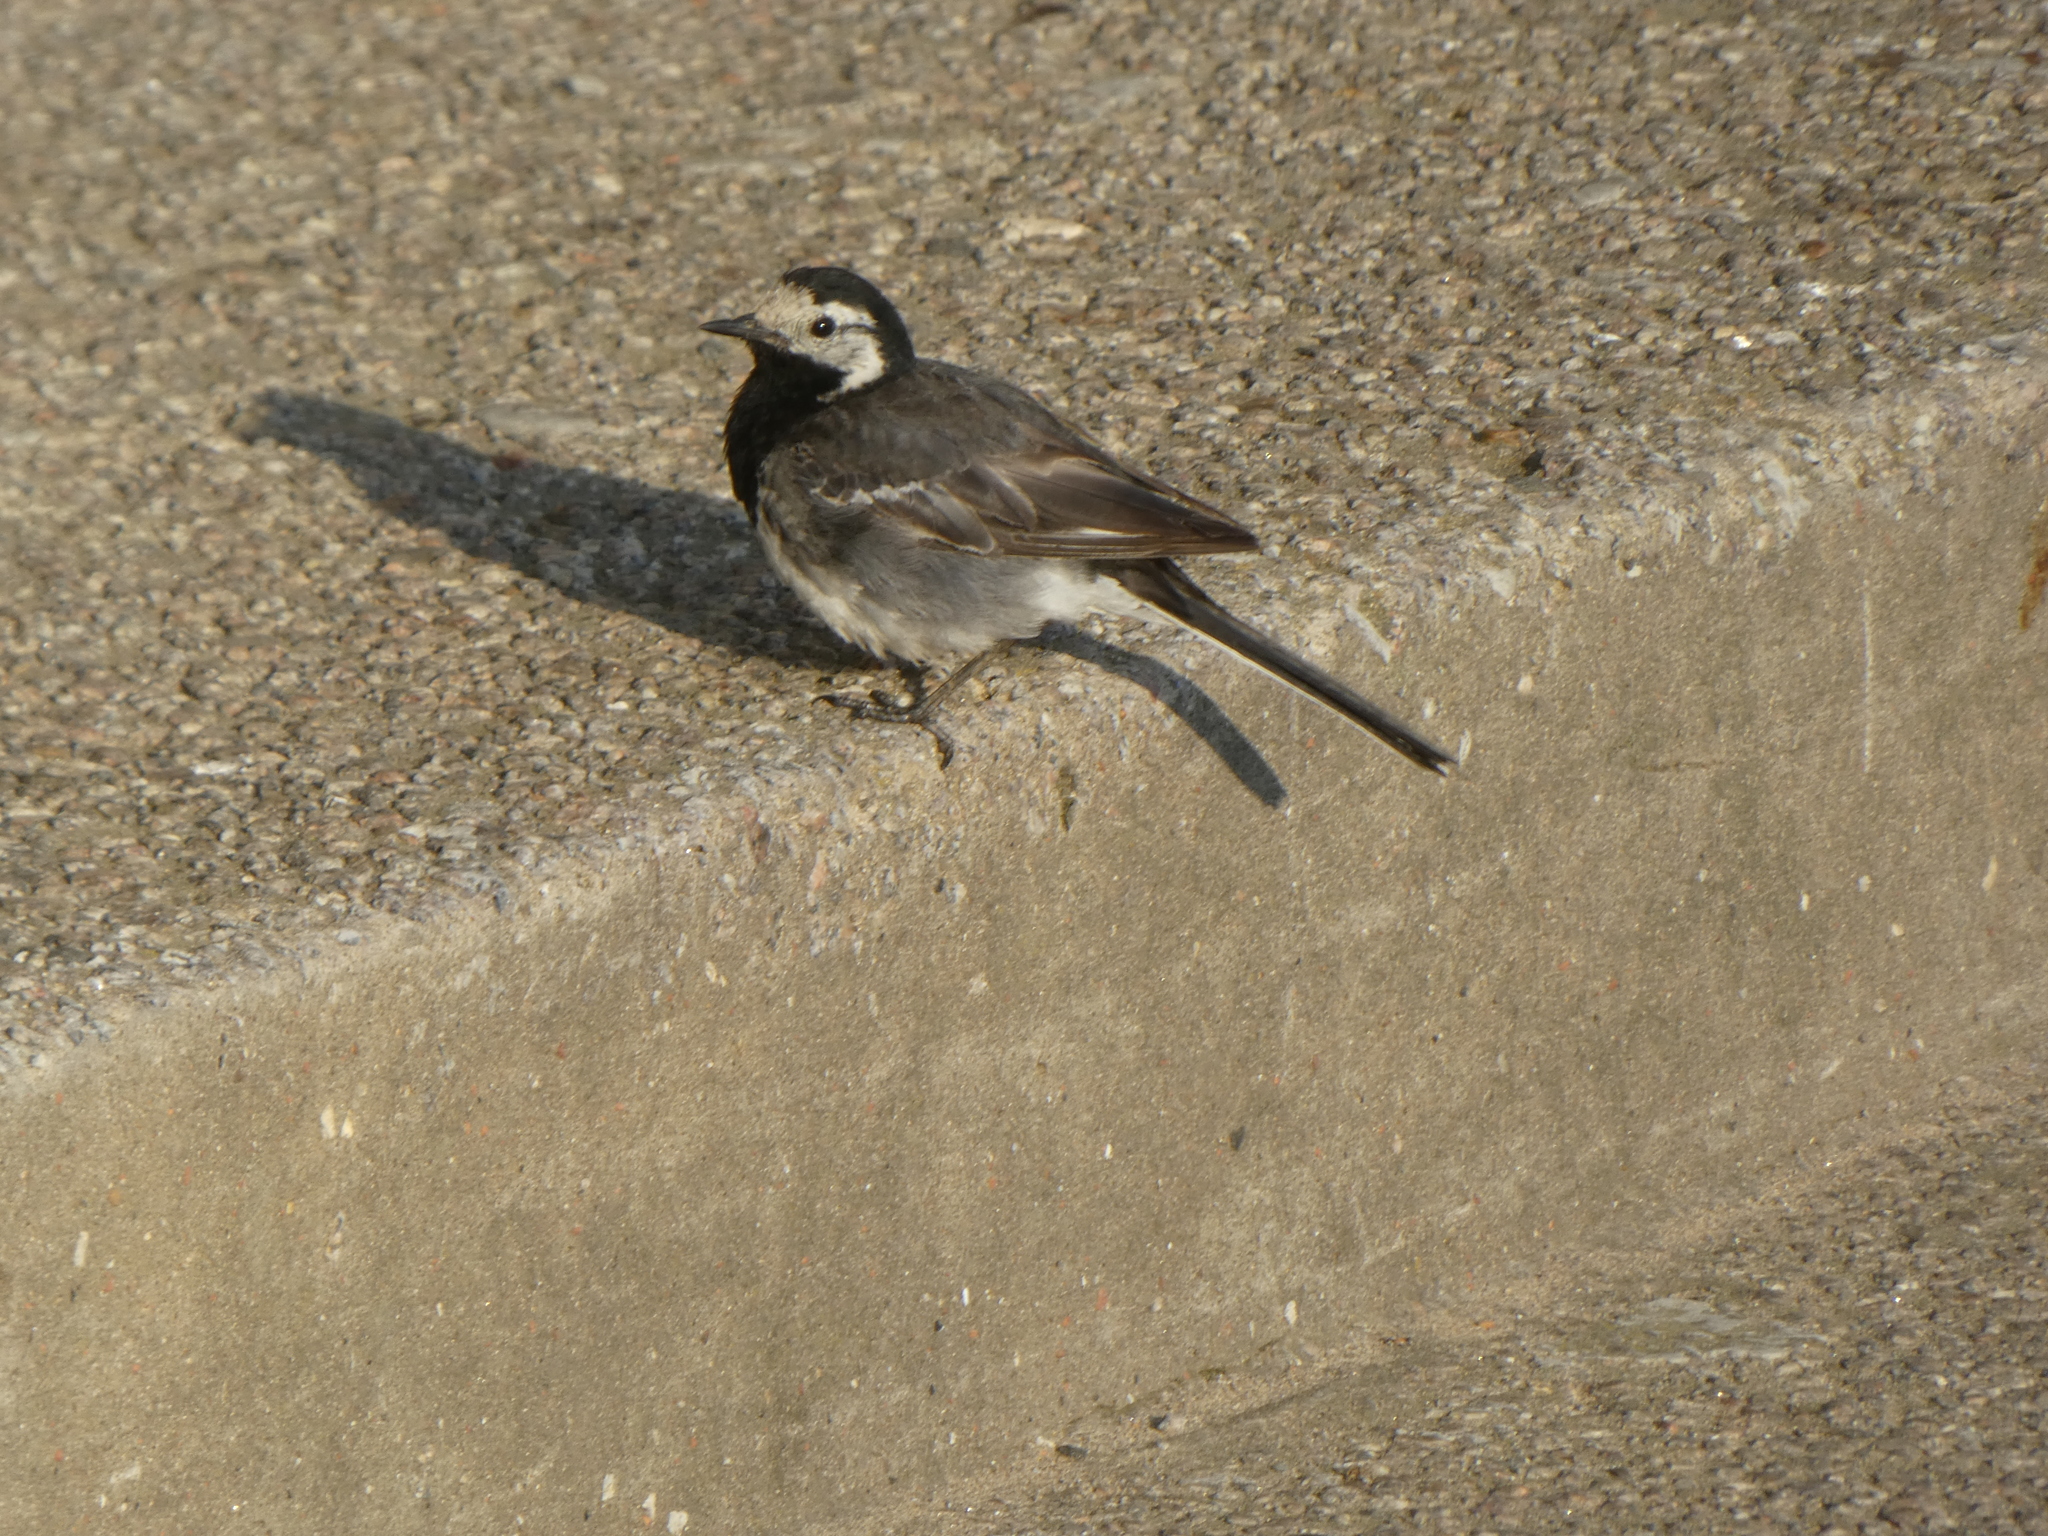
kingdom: Animalia
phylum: Chordata
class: Aves
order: Passeriformes
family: Motacillidae
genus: Motacilla
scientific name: Motacilla alba
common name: White wagtail
